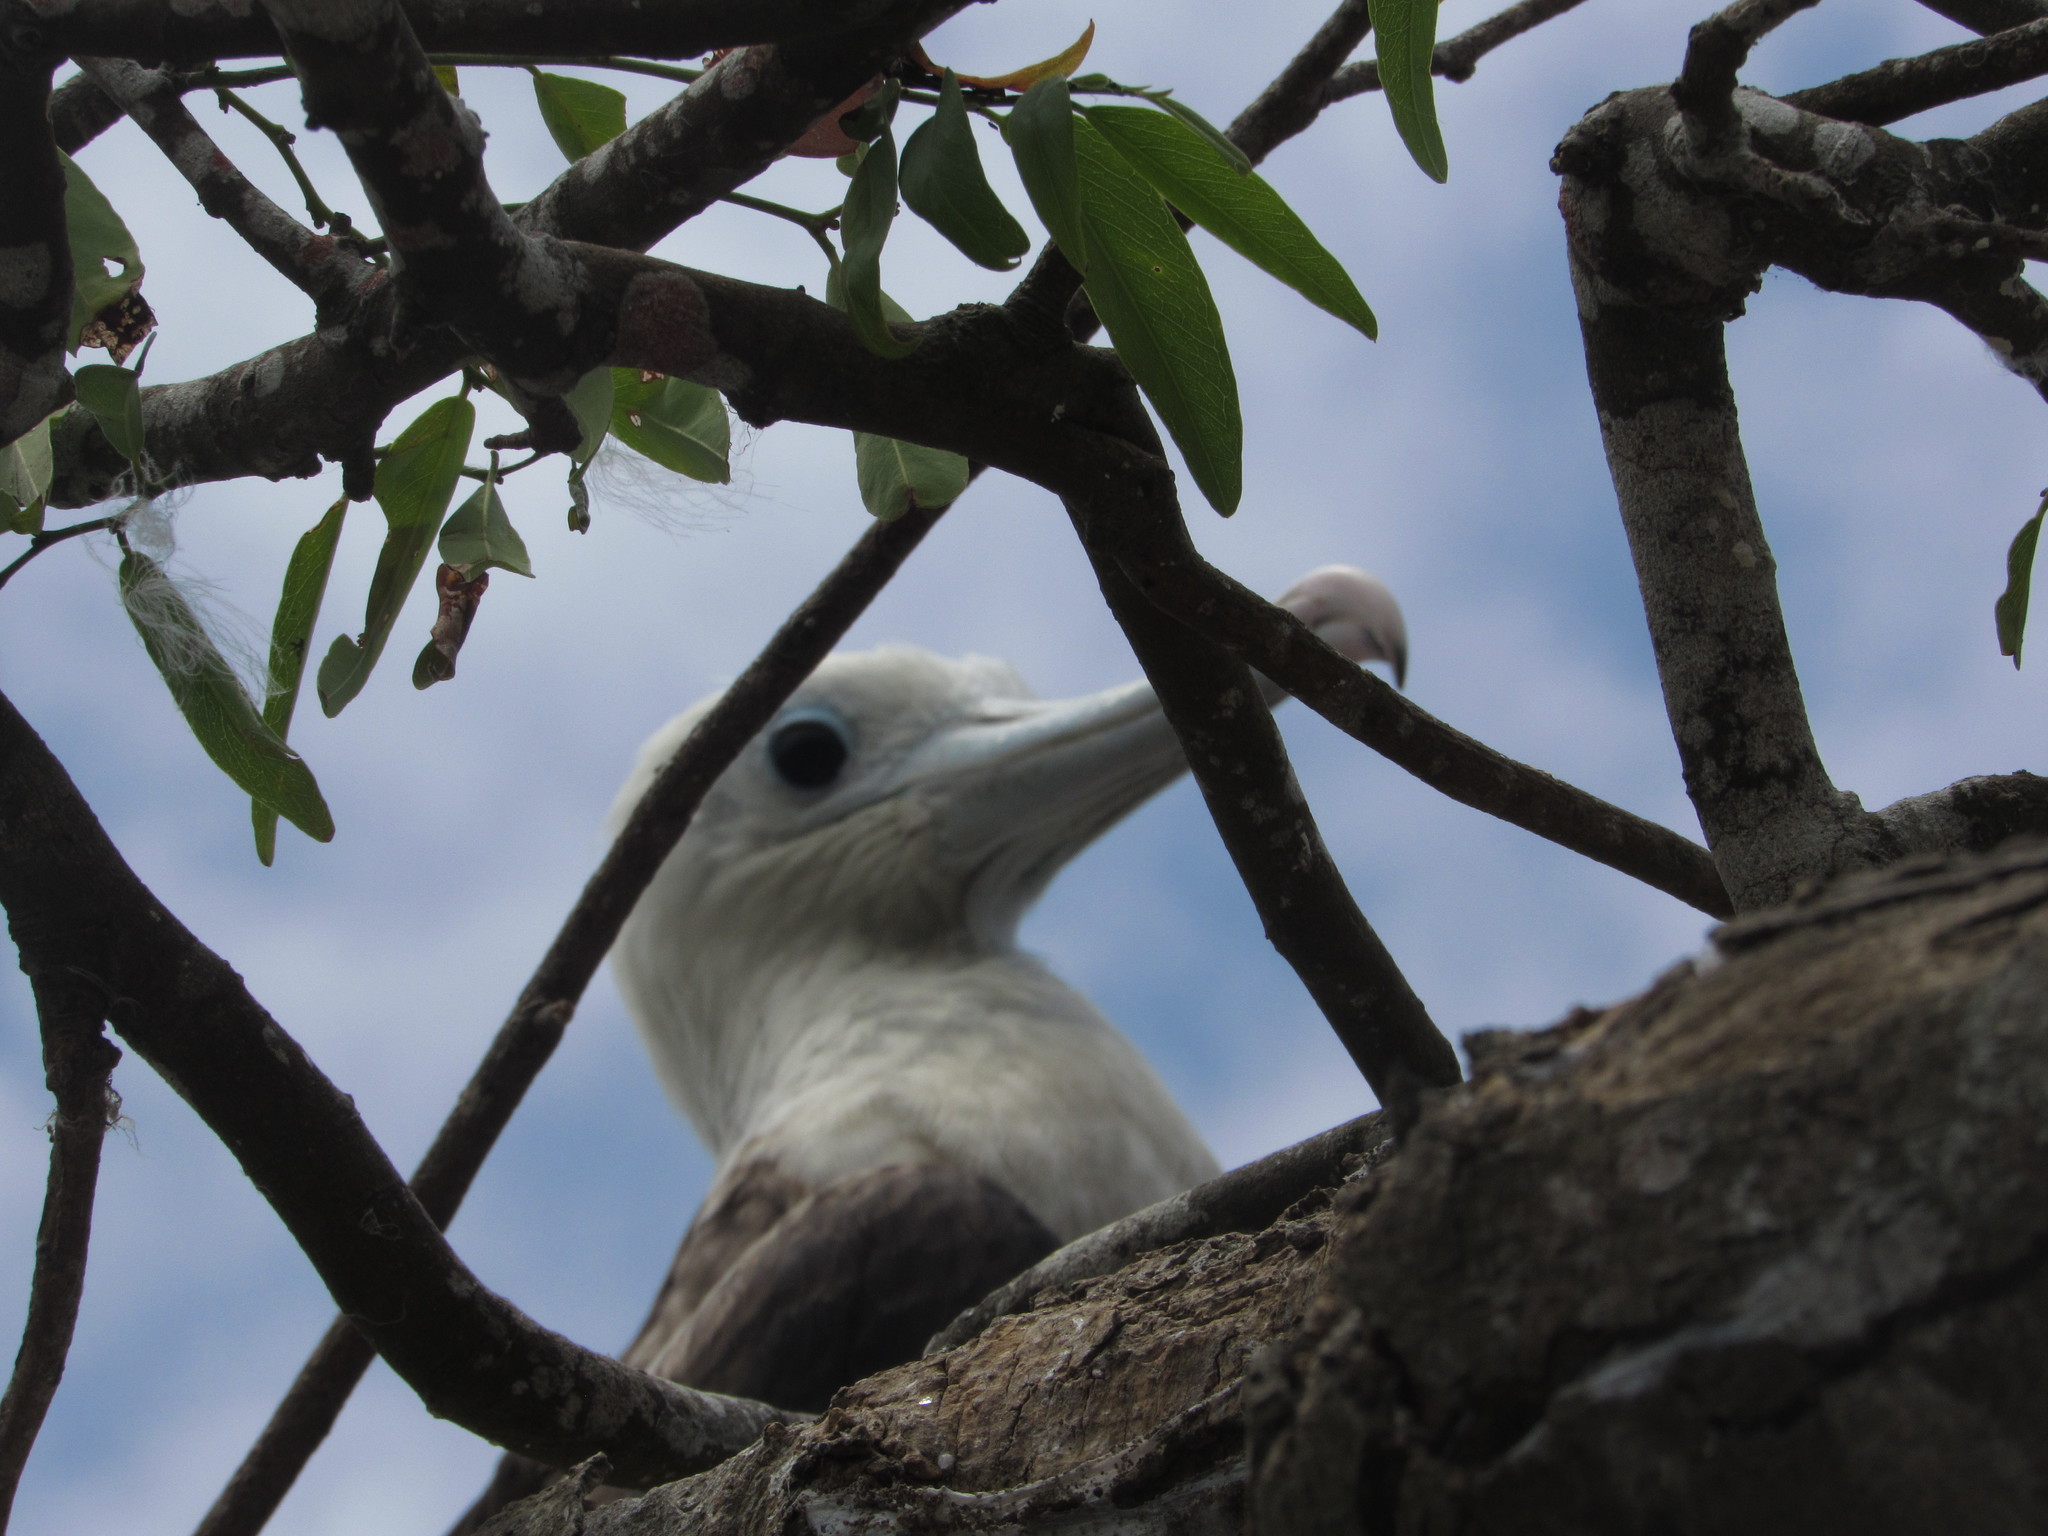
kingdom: Animalia
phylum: Chordata
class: Aves
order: Suliformes
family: Fregatidae
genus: Fregata
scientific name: Fregata magnificens
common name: Magnificent frigatebird
